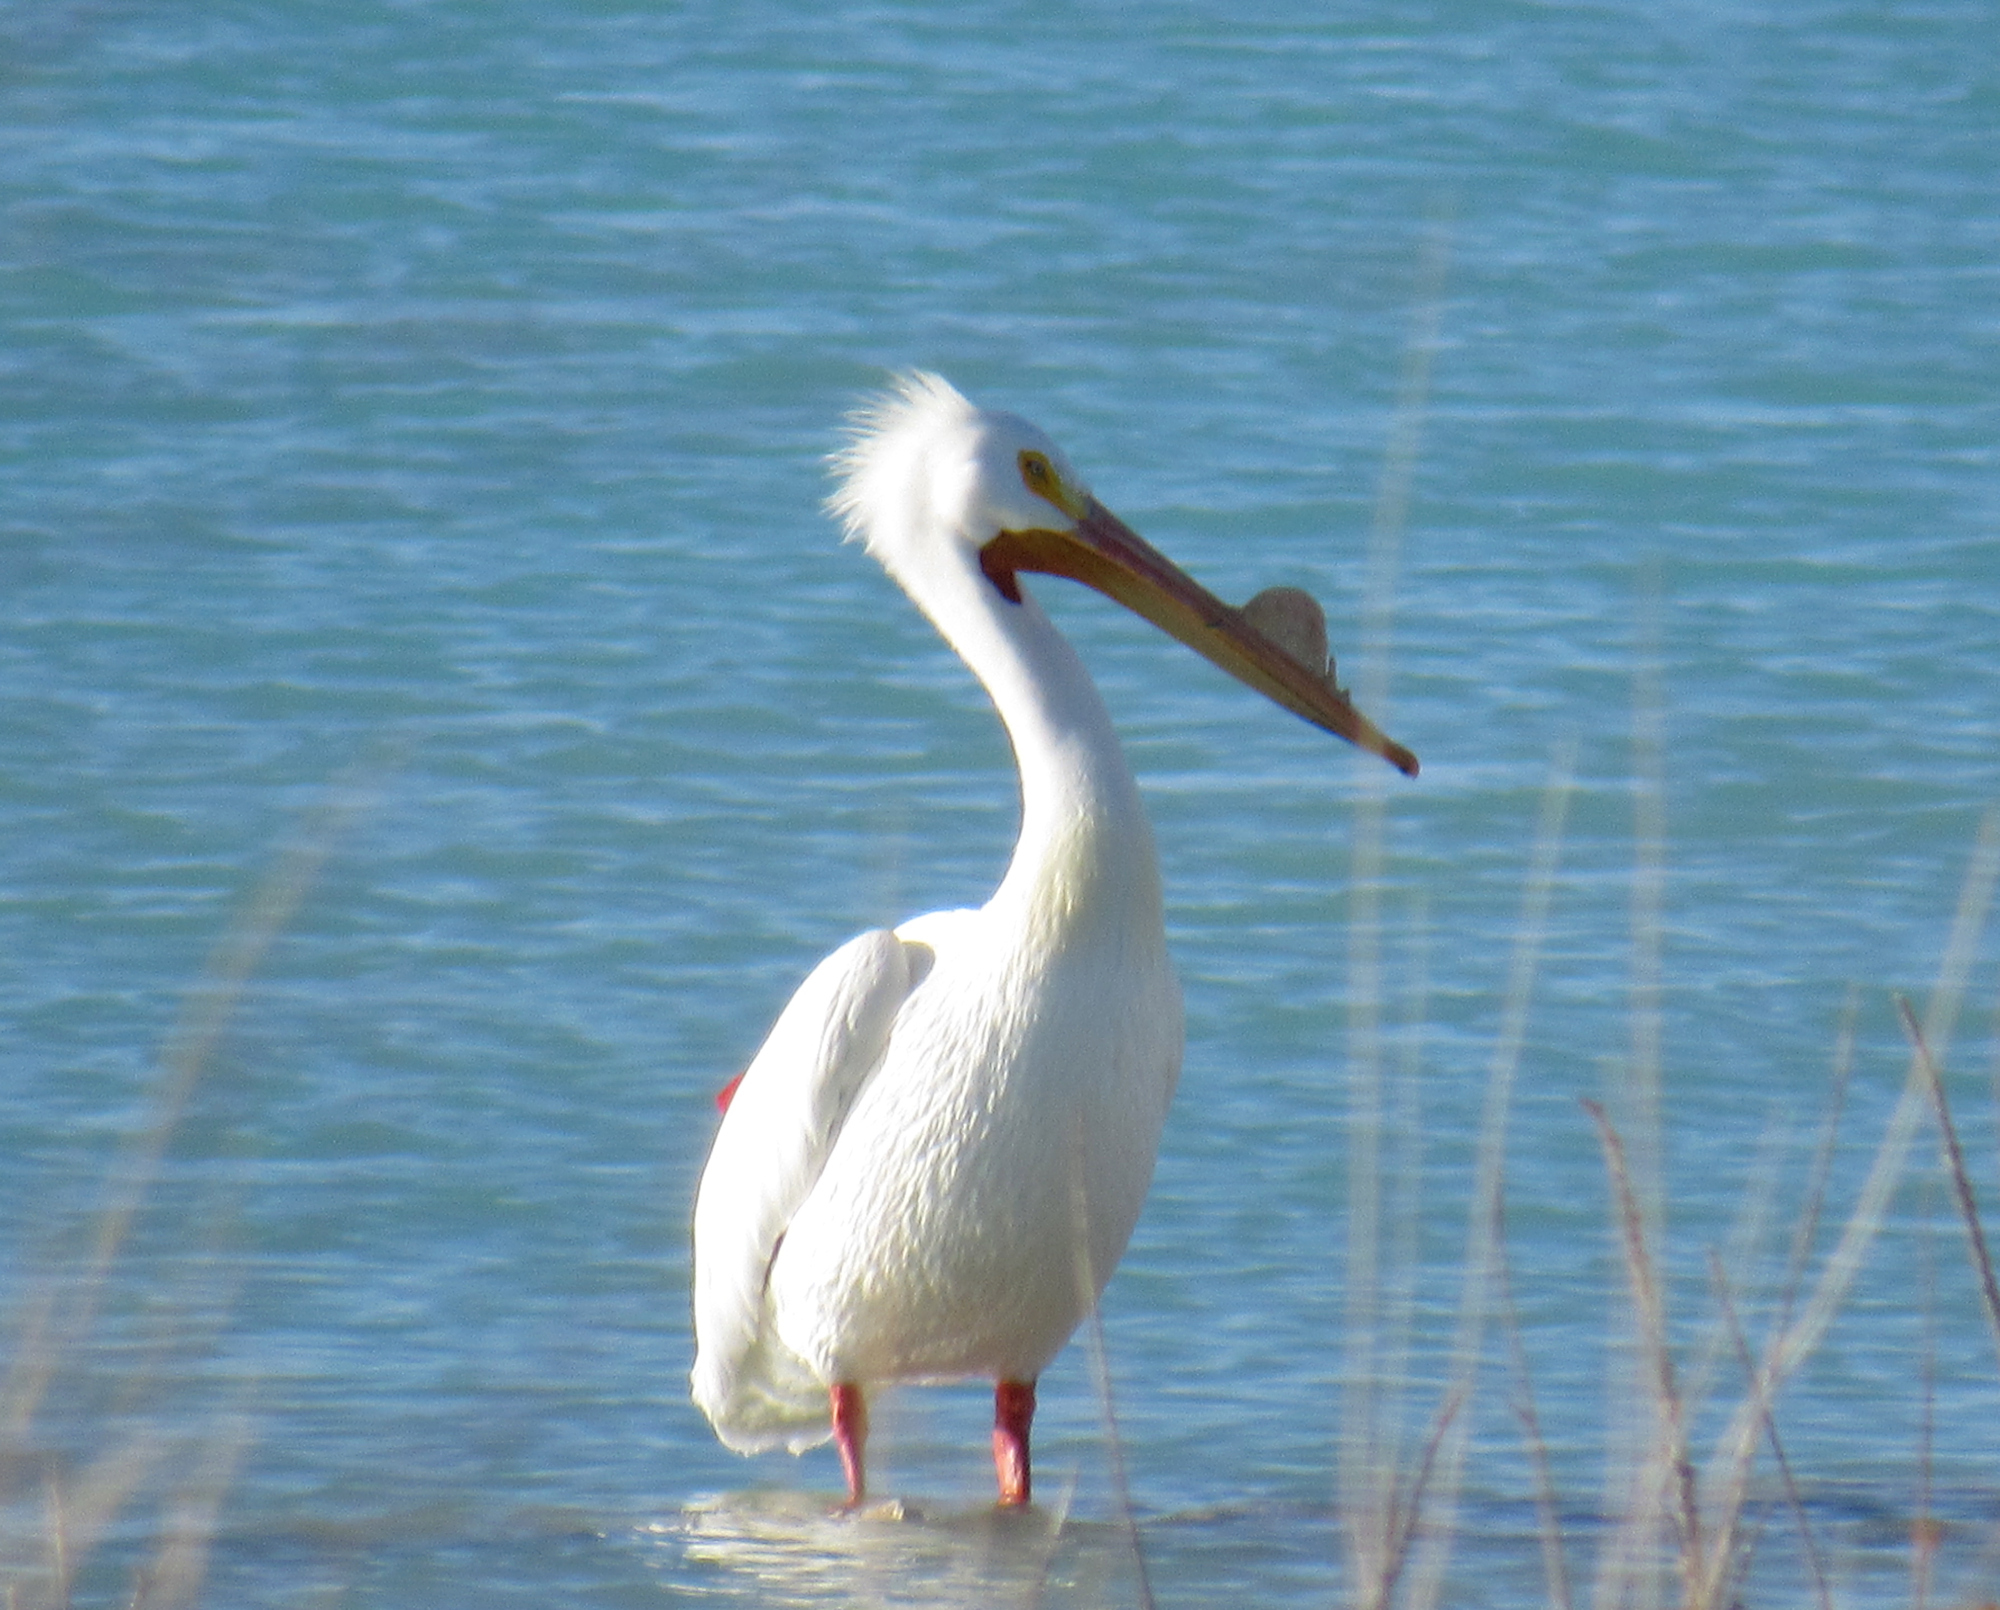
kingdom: Animalia
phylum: Chordata
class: Aves
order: Pelecaniformes
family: Pelecanidae
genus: Pelecanus
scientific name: Pelecanus erythrorhynchos
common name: American white pelican
